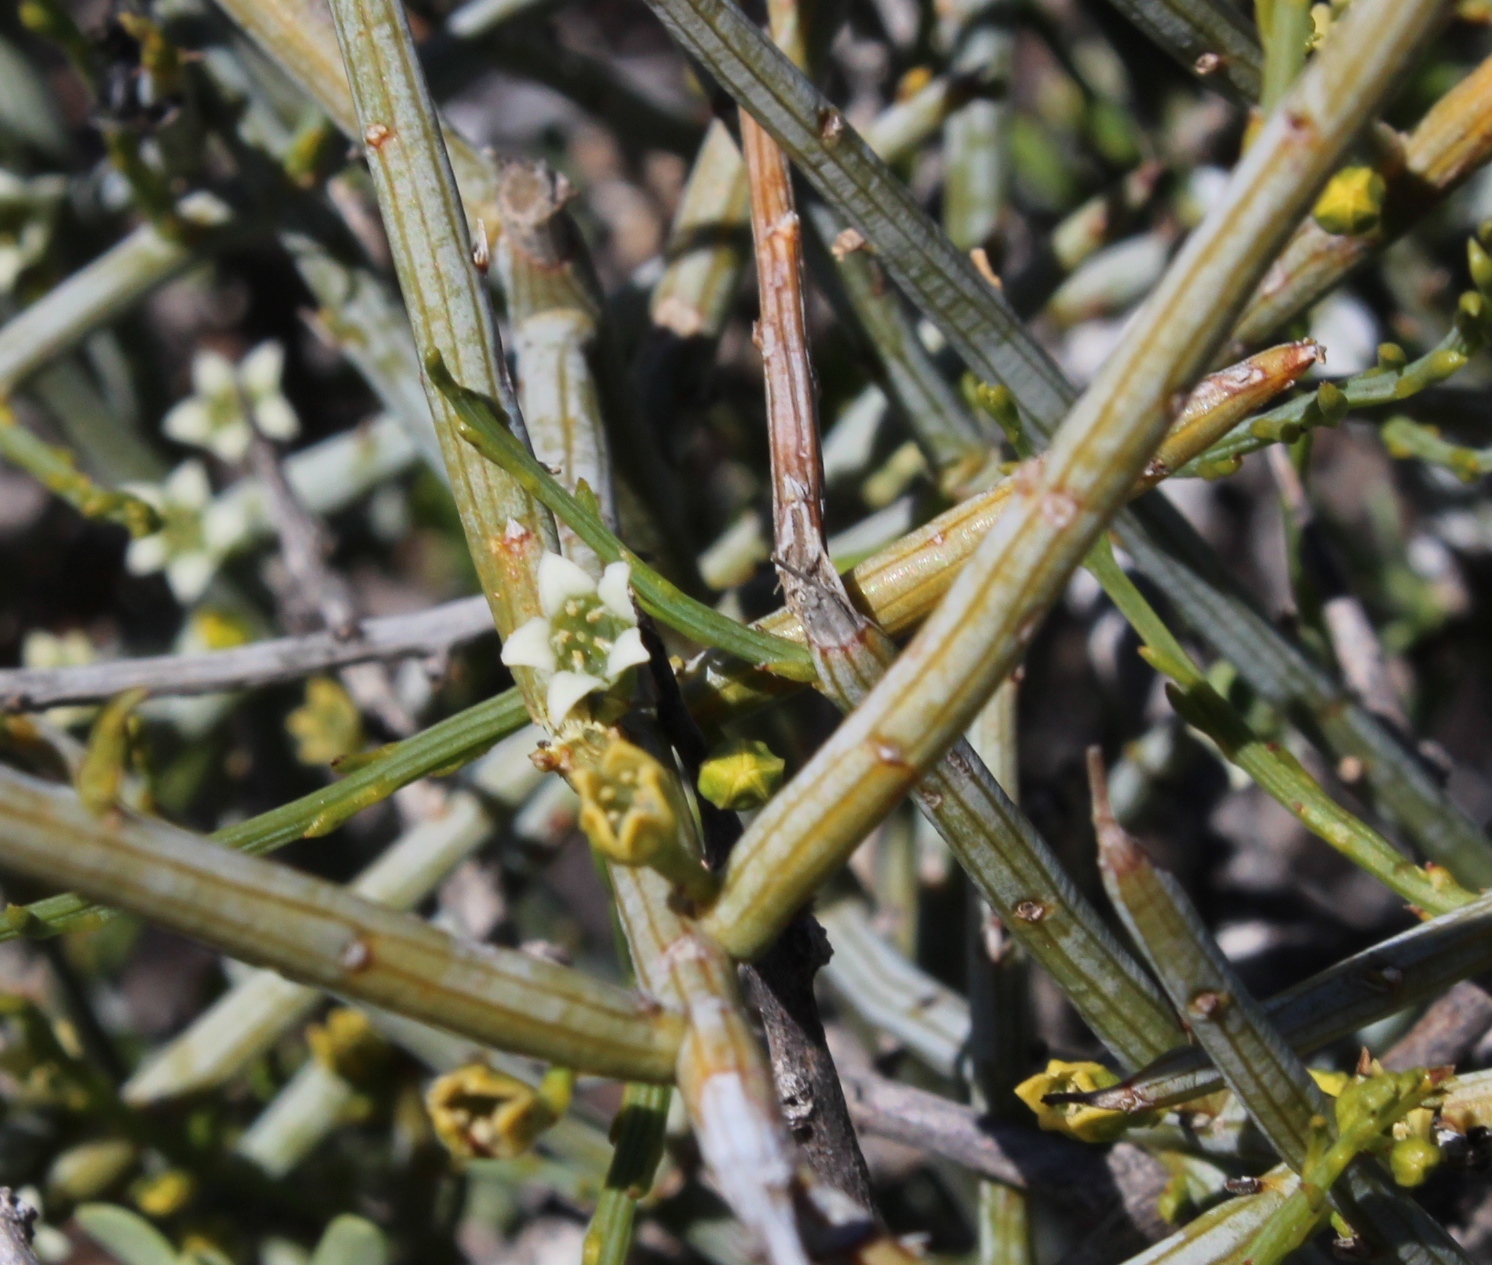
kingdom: Plantae
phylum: Tracheophyta
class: Magnoliopsida
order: Santalales
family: Thesiaceae
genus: Lacomucinaea
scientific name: Lacomucinaea lineata
